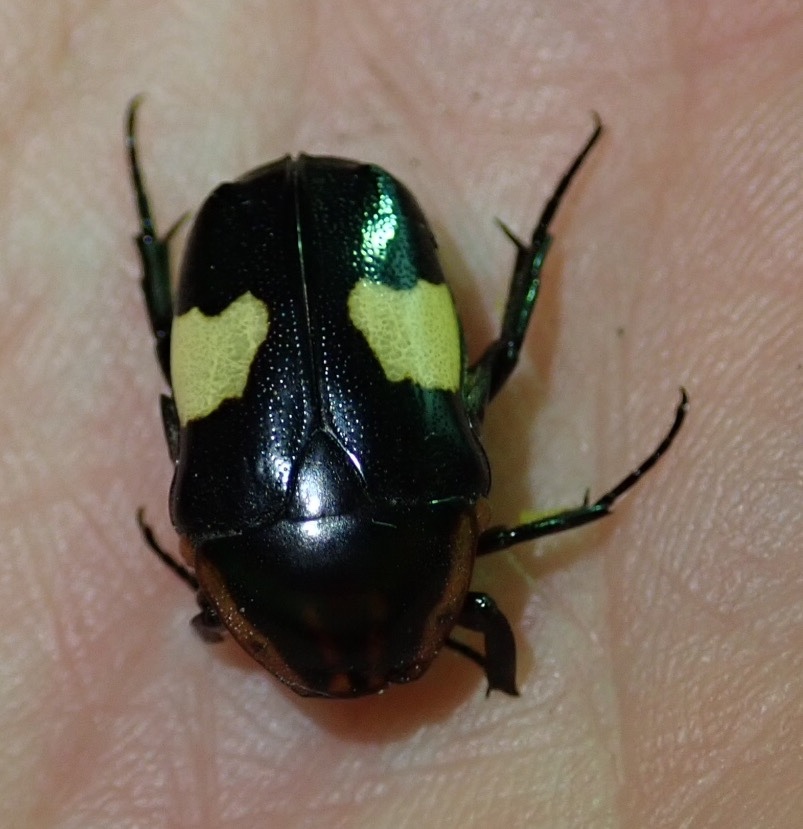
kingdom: Animalia
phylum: Arthropoda
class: Insecta
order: Coleoptera
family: Scarabaeidae
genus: Pedinorrhina
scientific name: Pedinorrhina
